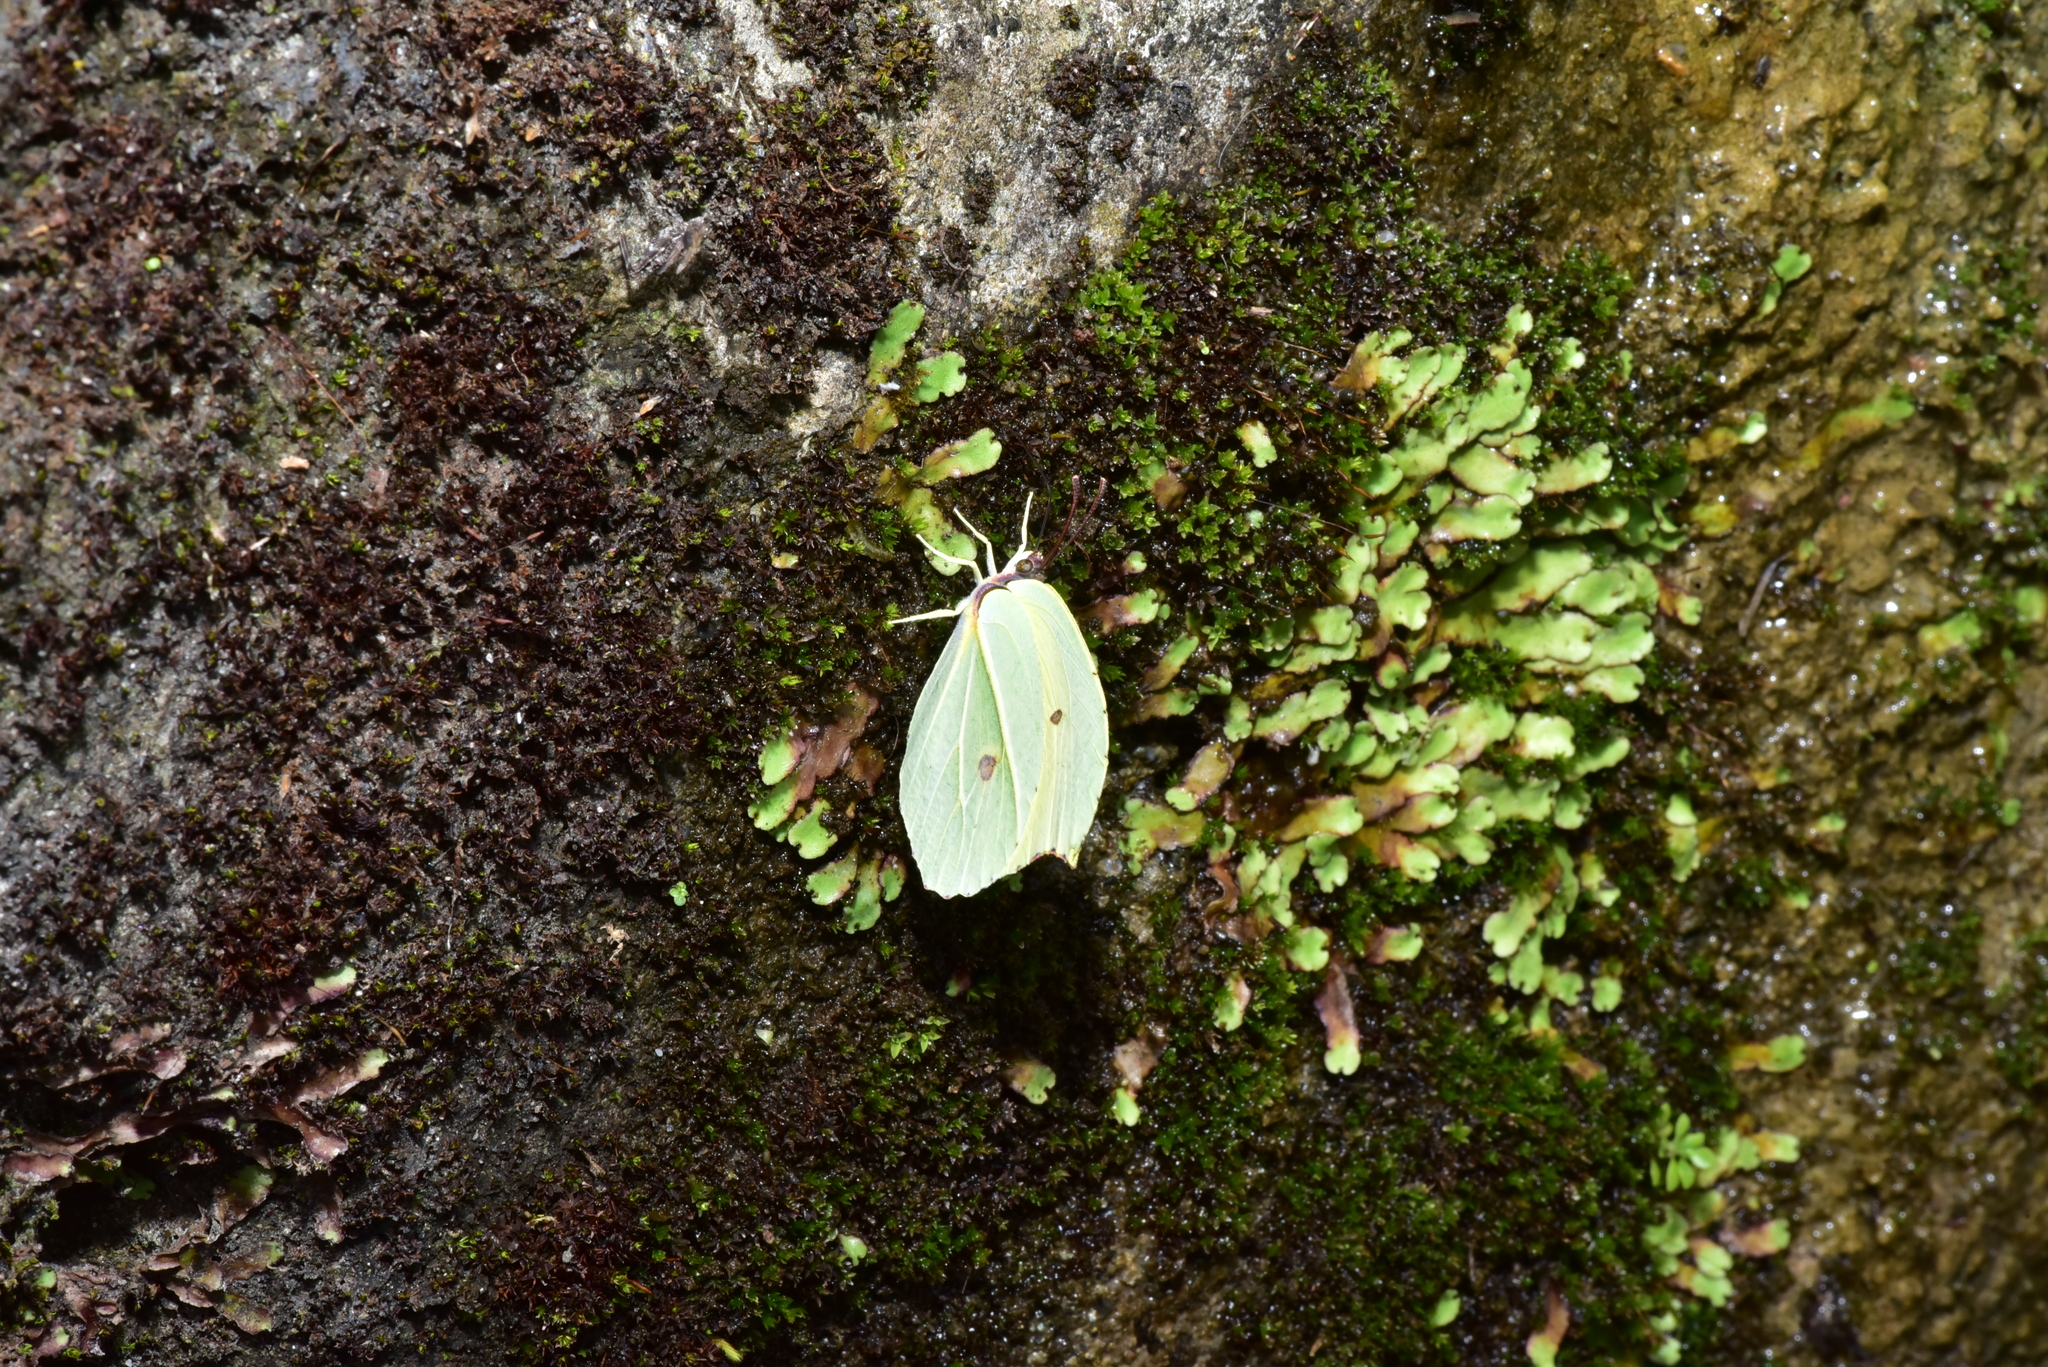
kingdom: Animalia
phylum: Arthropoda
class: Insecta
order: Lepidoptera
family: Pieridae
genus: Gonepteryx
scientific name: Gonepteryx amintha
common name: Orange brimstone
